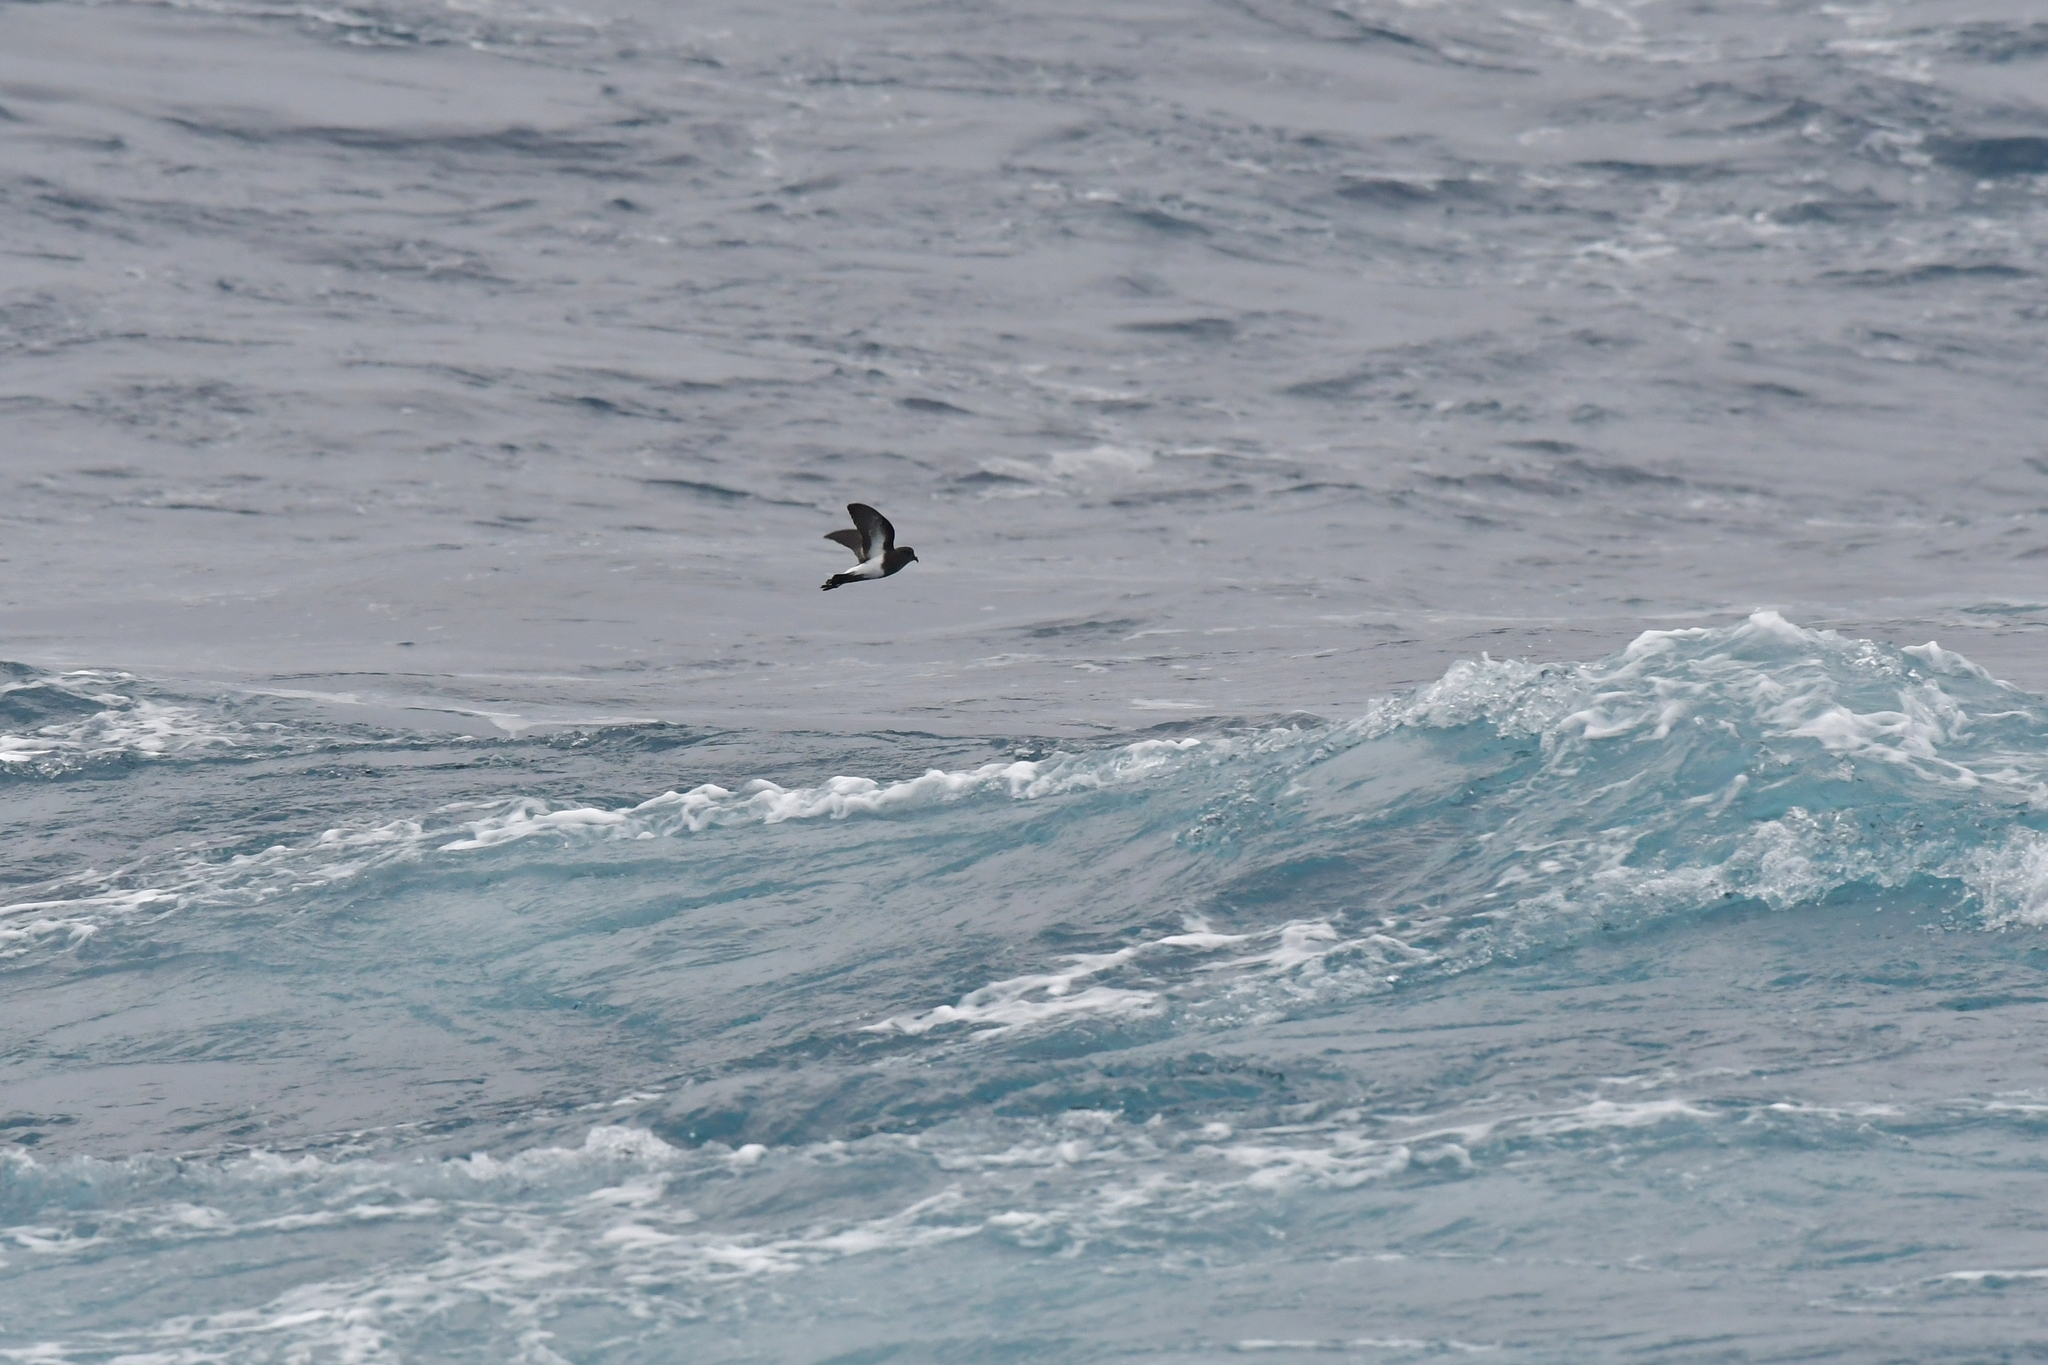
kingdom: Animalia
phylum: Chordata
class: Aves
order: Procellariiformes
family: Hydrobatidae
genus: Fregetta
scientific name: Fregetta tropica
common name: Black-bellied storm-petrel
